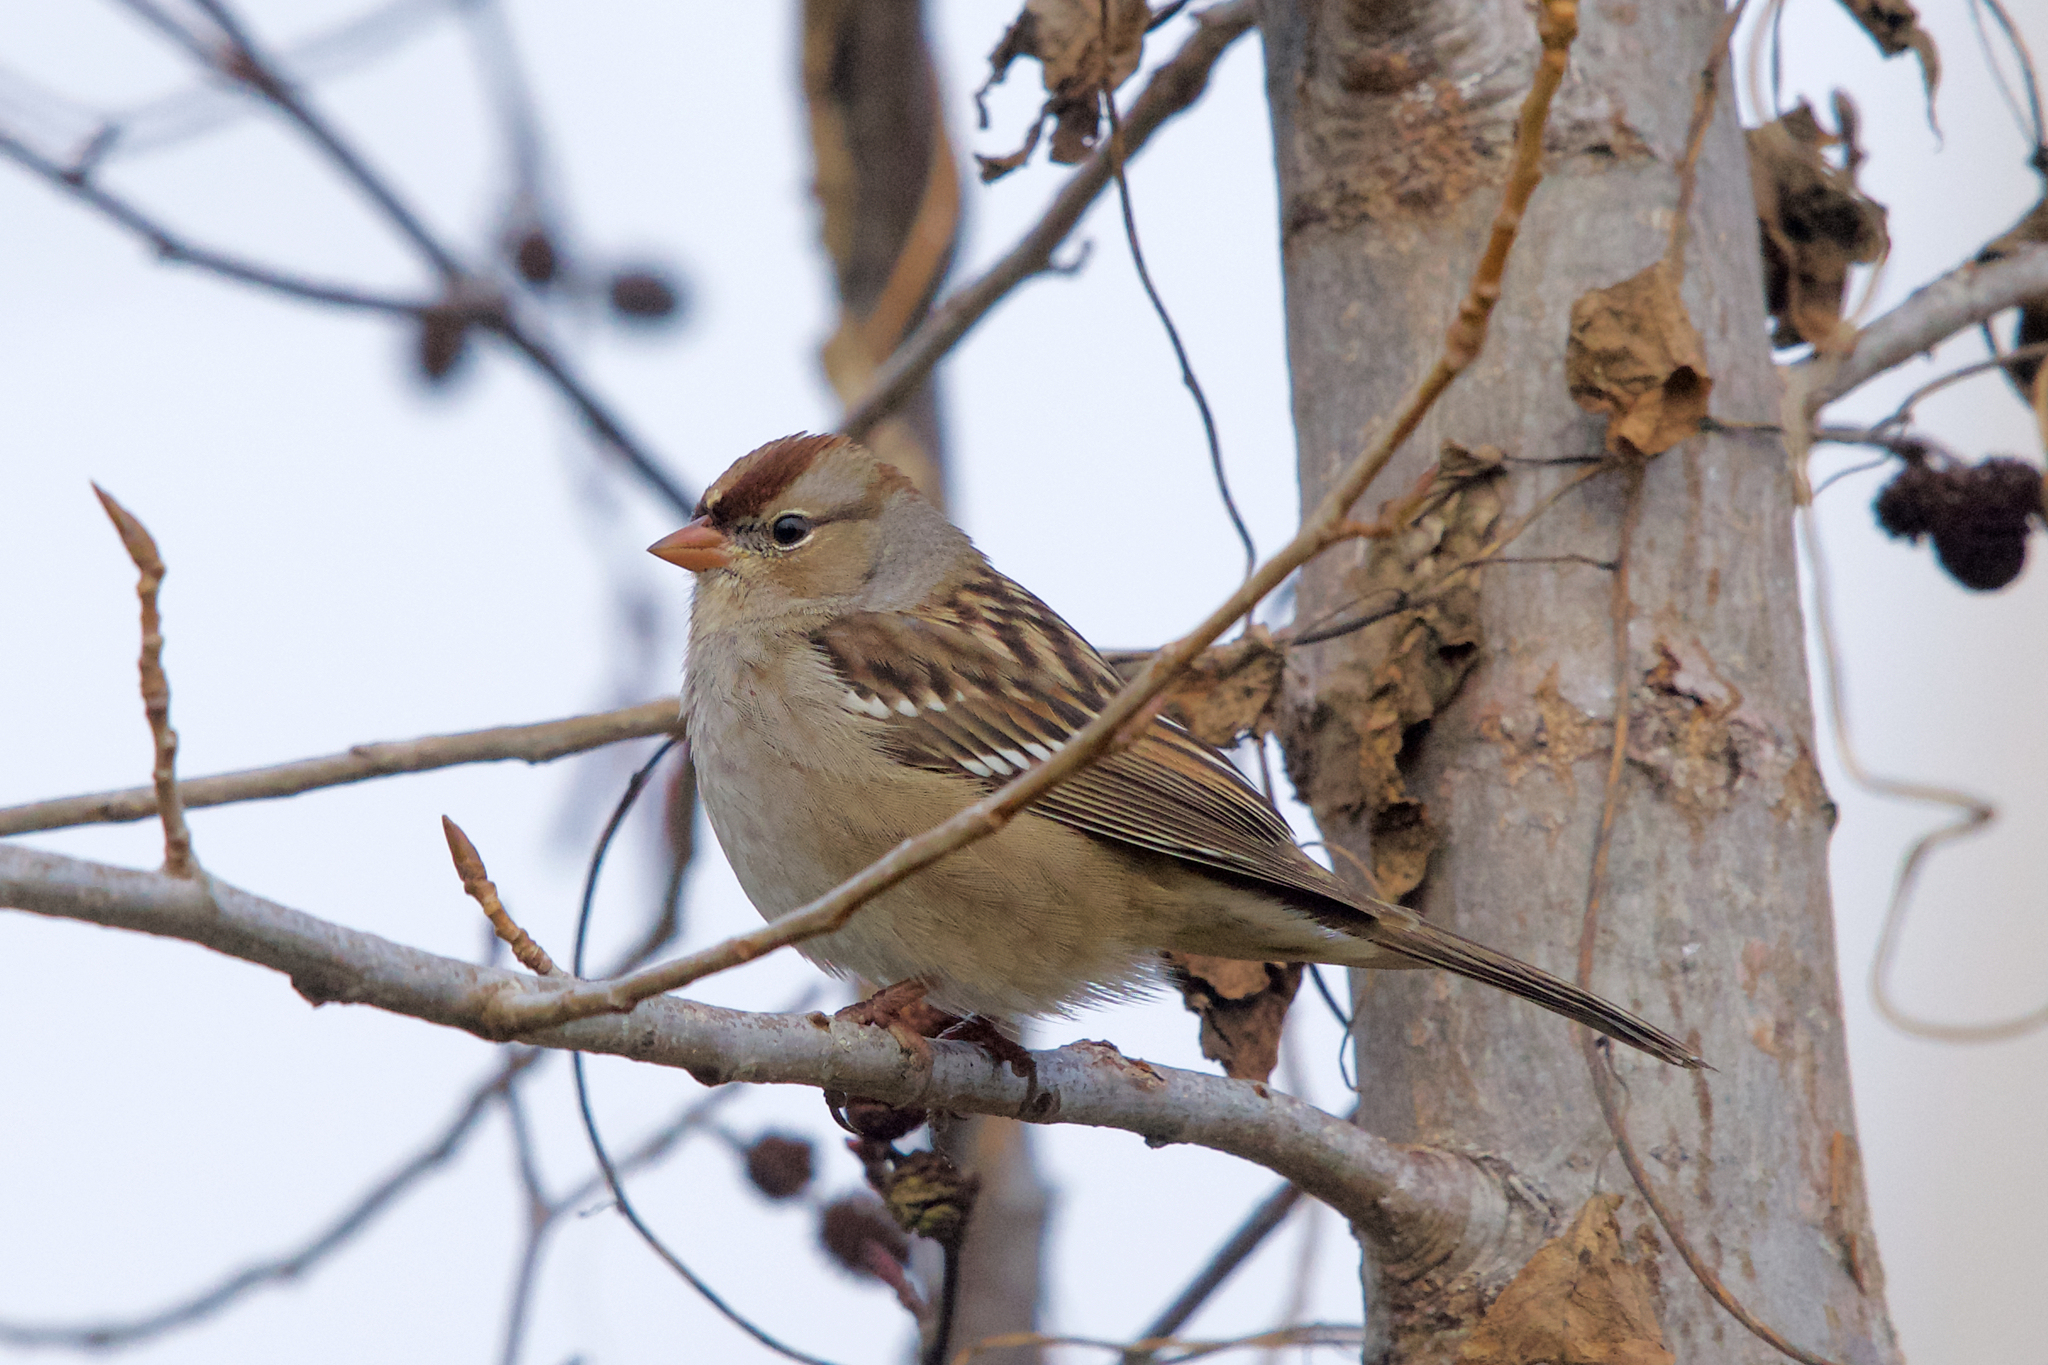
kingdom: Animalia
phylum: Chordata
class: Aves
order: Passeriformes
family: Passerellidae
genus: Zonotrichia
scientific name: Zonotrichia leucophrys
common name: White-crowned sparrow
